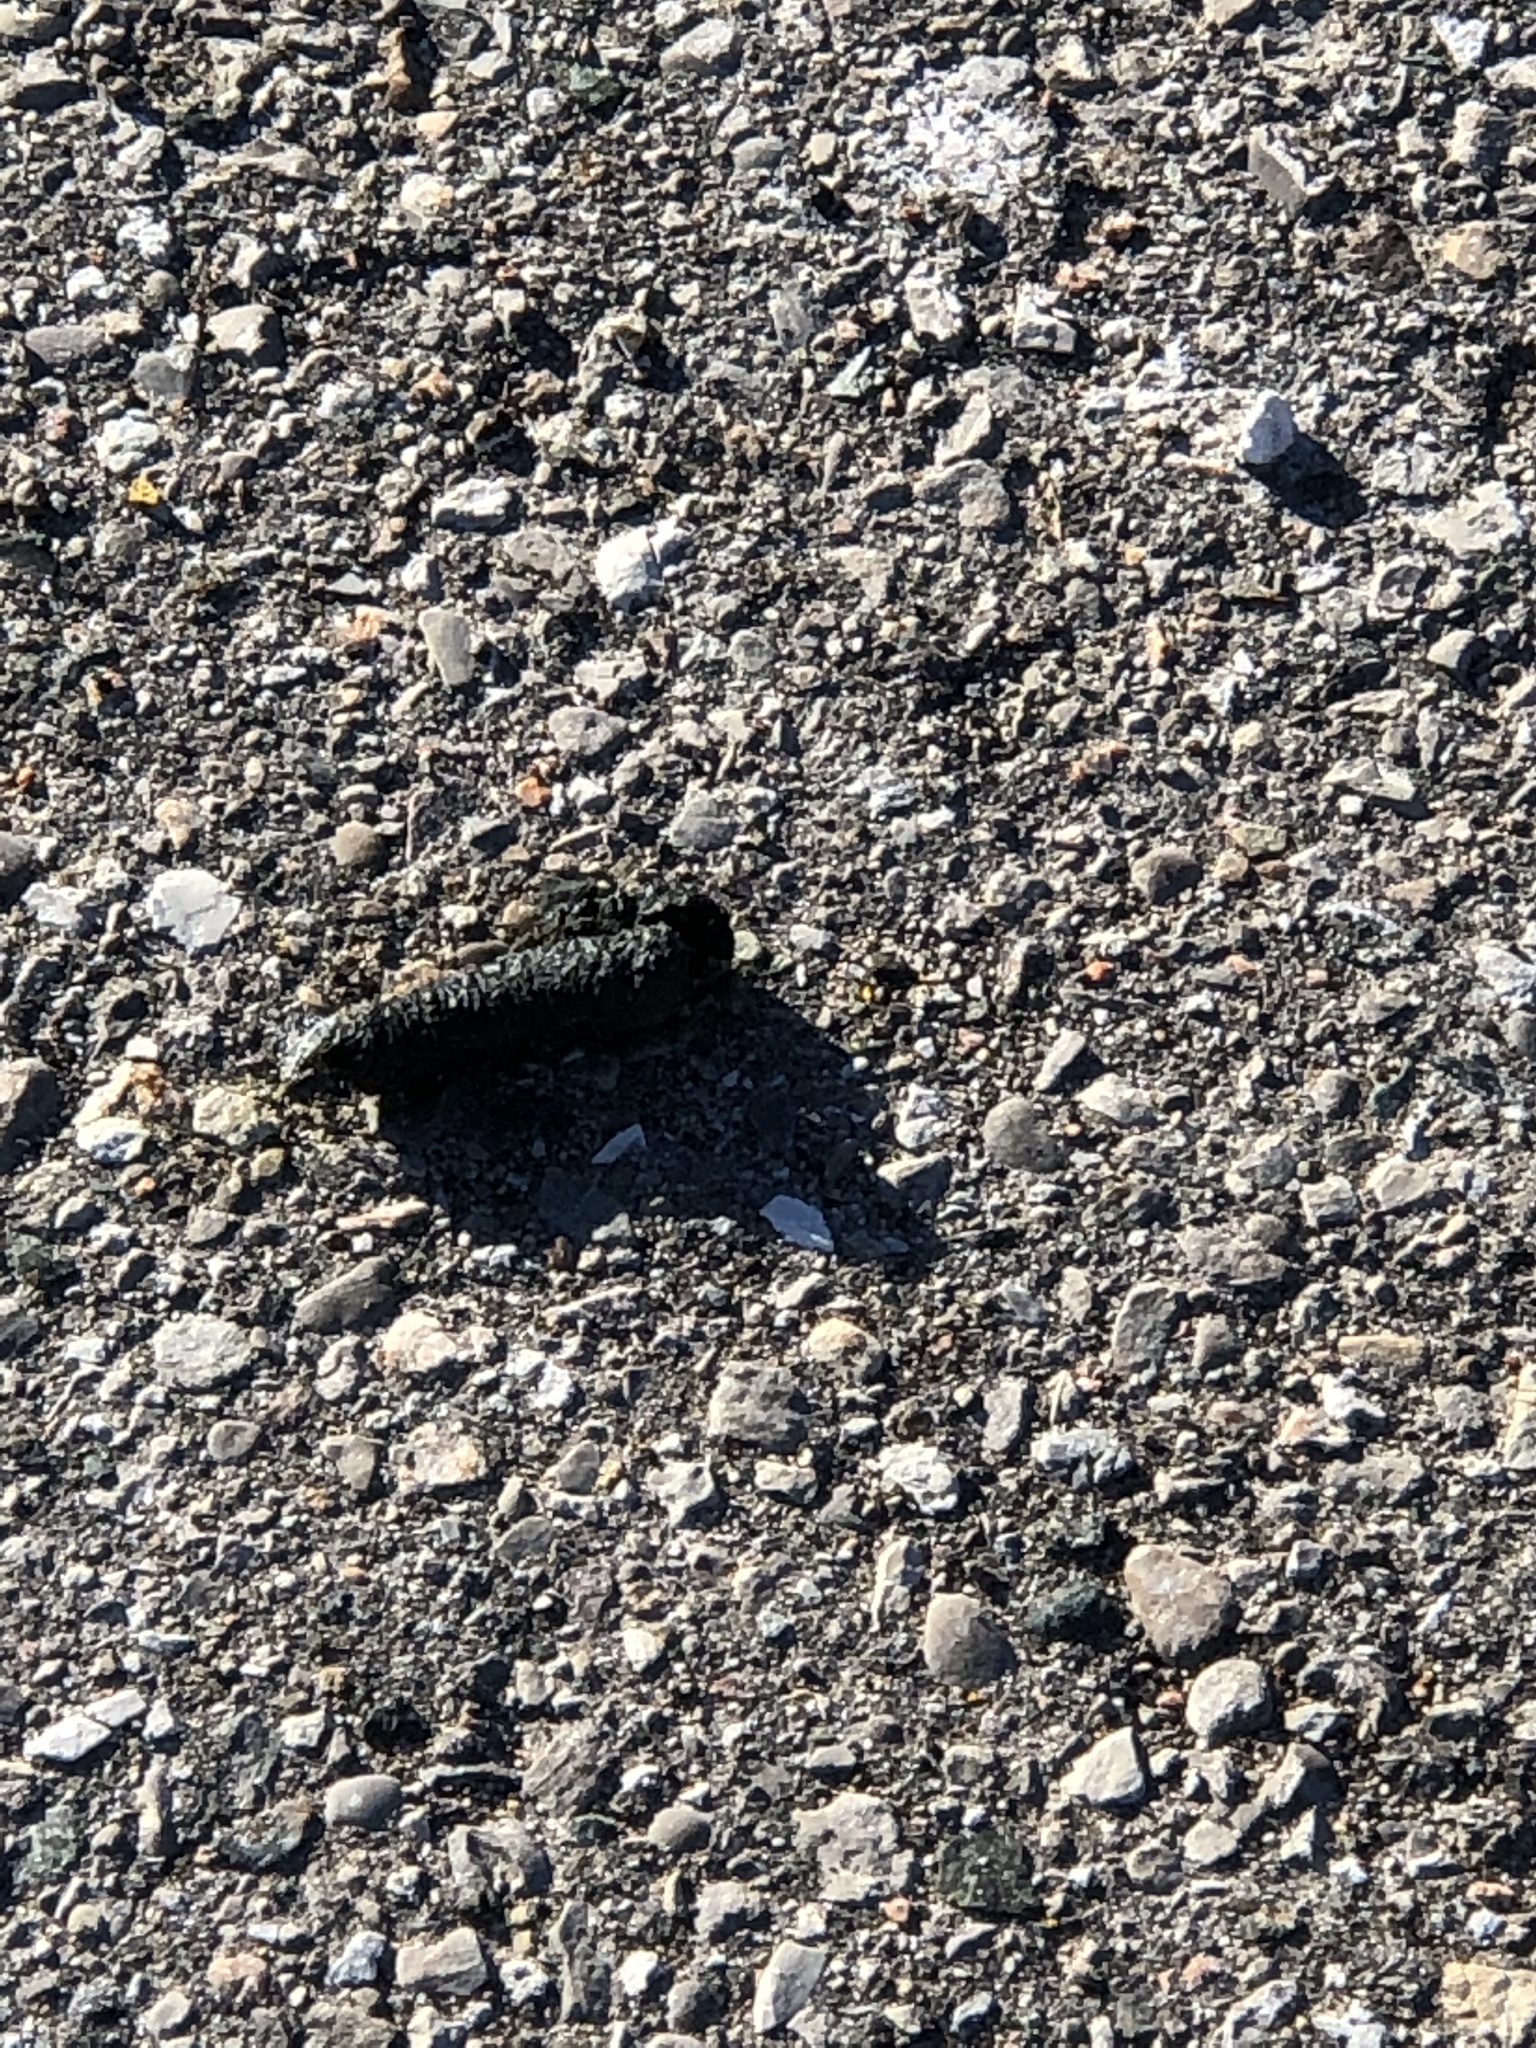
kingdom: Animalia
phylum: Chordata
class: Aves
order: Anseriformes
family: Anatidae
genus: Branta
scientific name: Branta canadensis
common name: Canada goose
